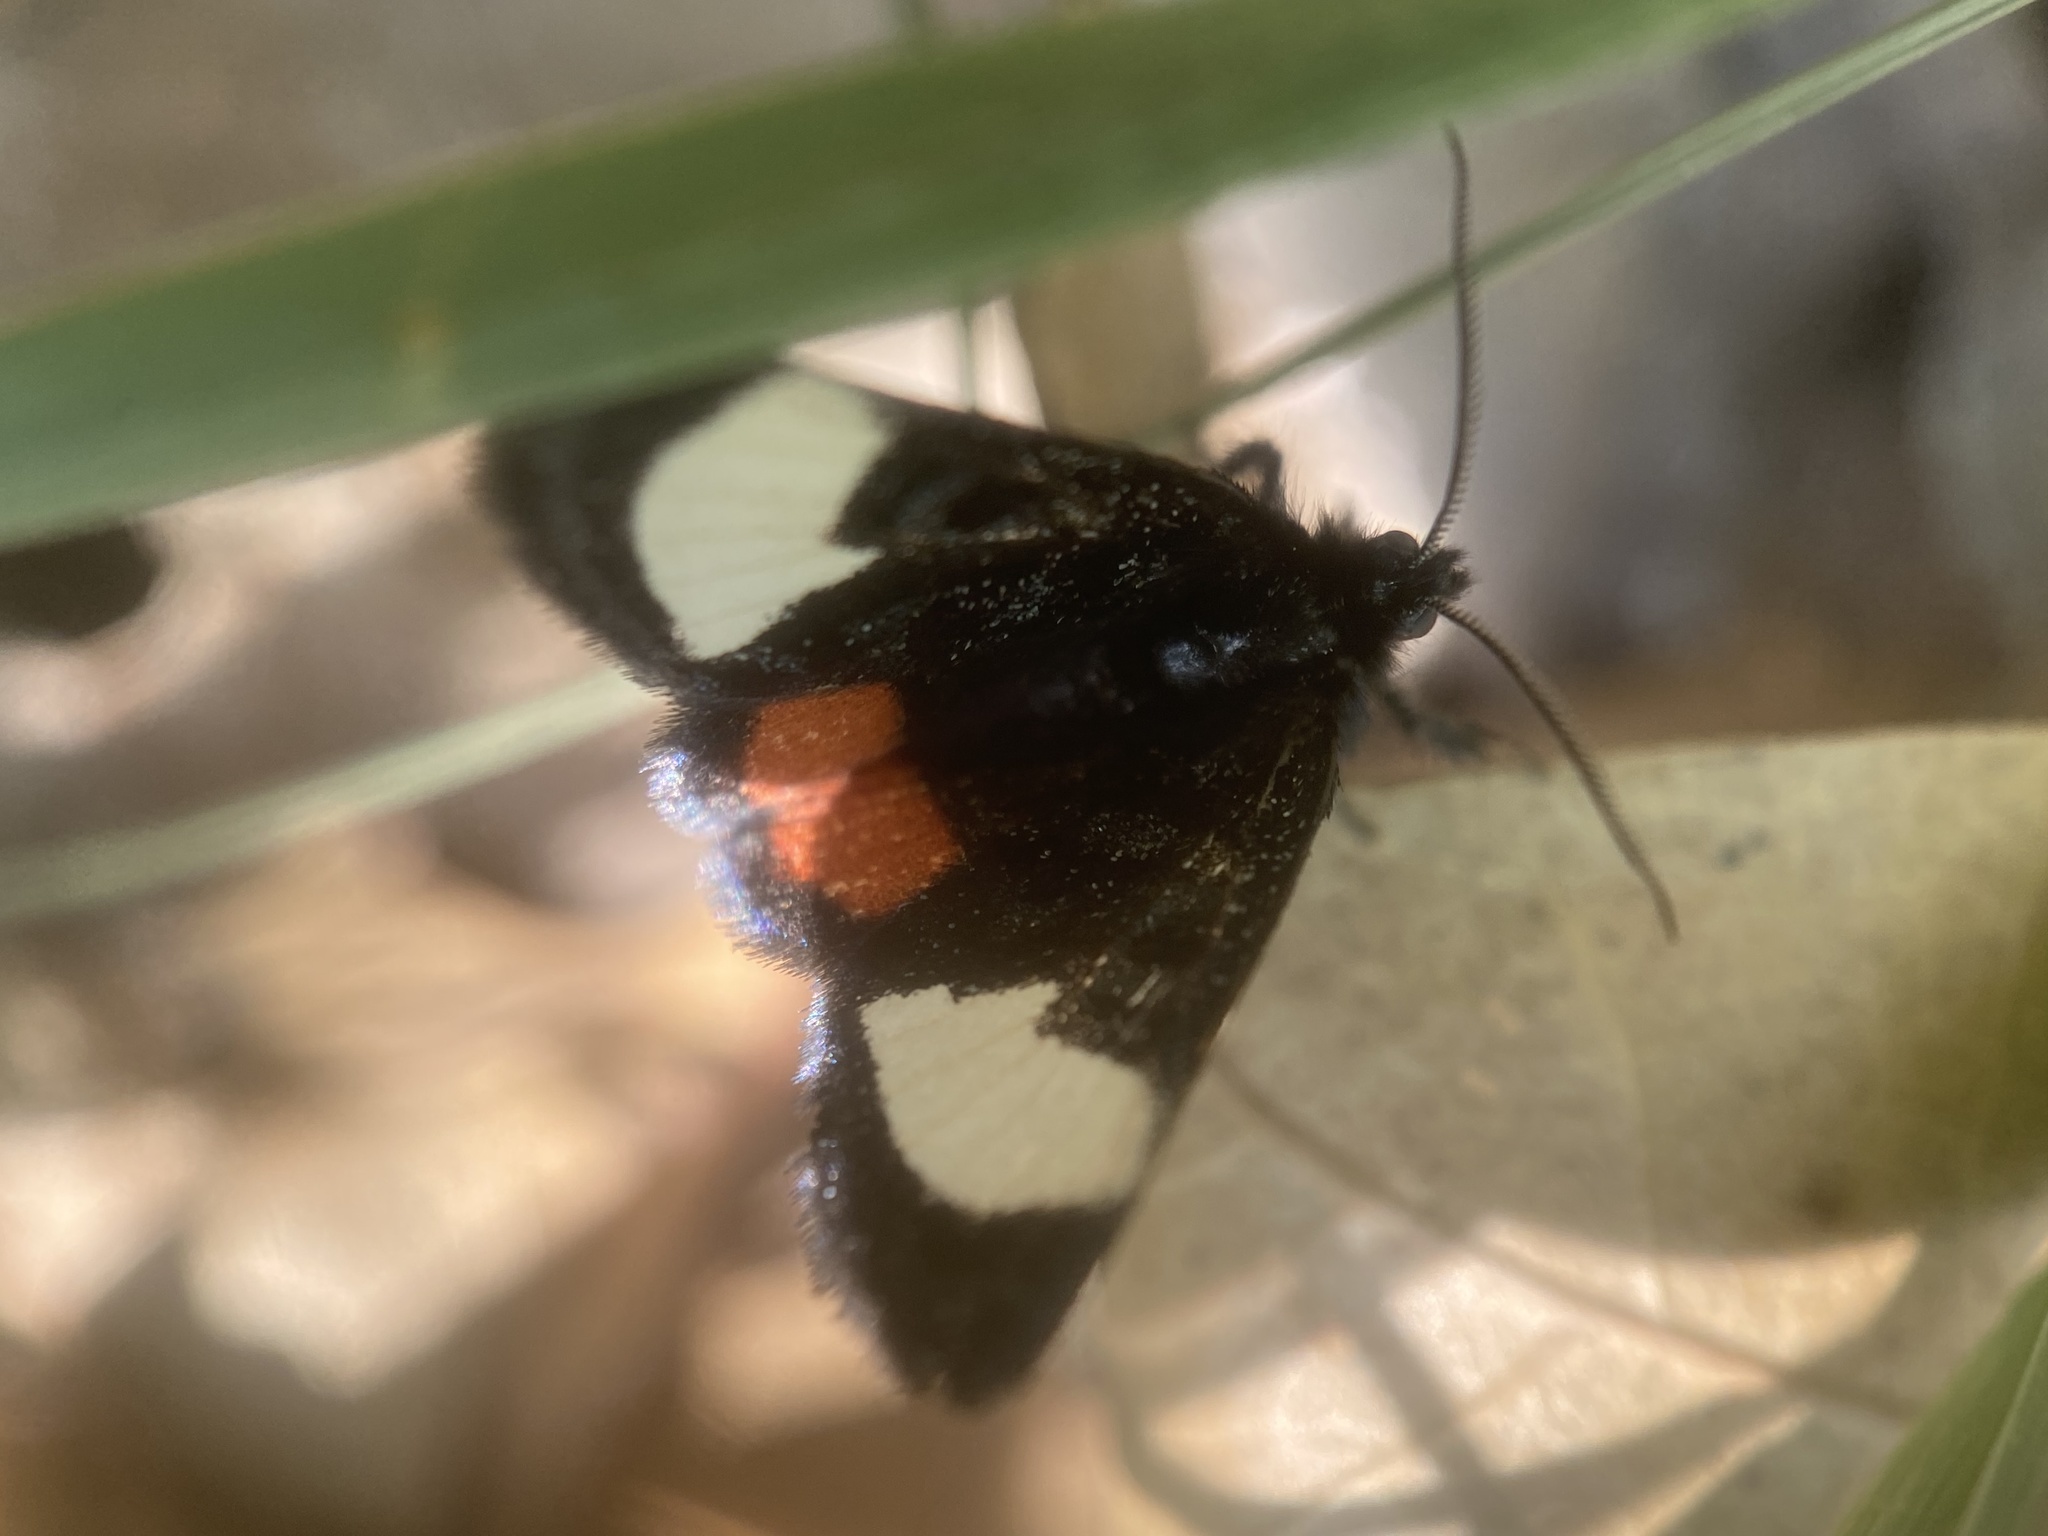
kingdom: Animalia
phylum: Arthropoda
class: Insecta
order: Lepidoptera
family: Noctuidae
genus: Psychomorpha
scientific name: Psychomorpha epimenis
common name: Grapevine epimenis moth
